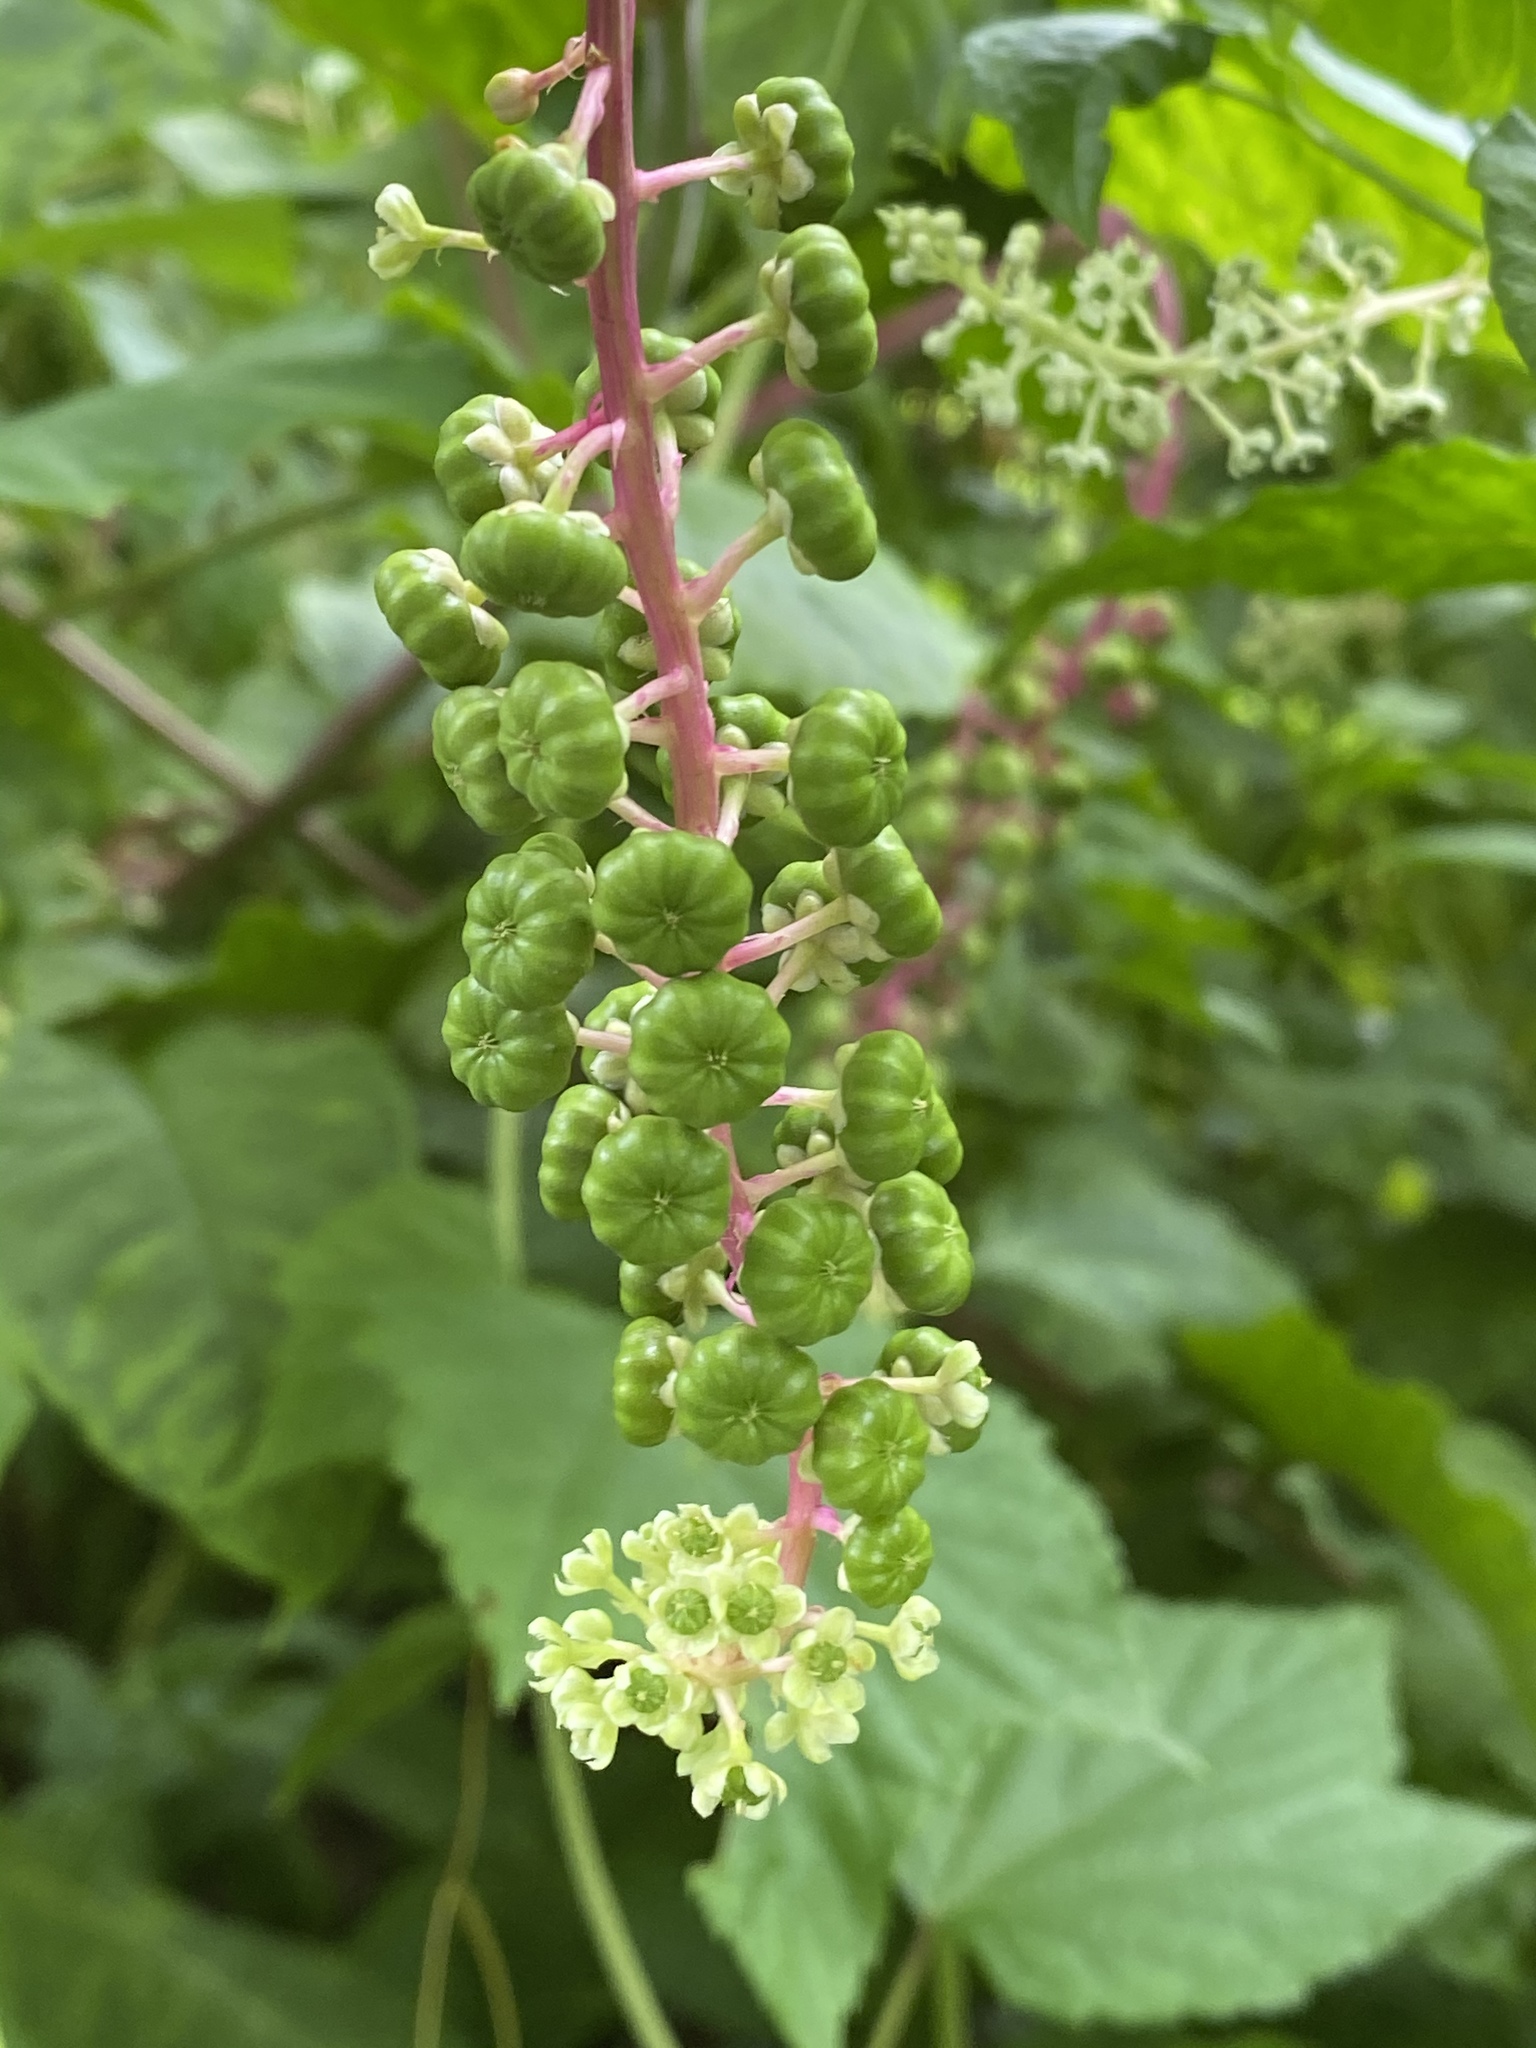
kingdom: Plantae
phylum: Tracheophyta
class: Magnoliopsida
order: Caryophyllales
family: Phytolaccaceae
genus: Phytolacca
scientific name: Phytolacca americana
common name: American pokeweed
